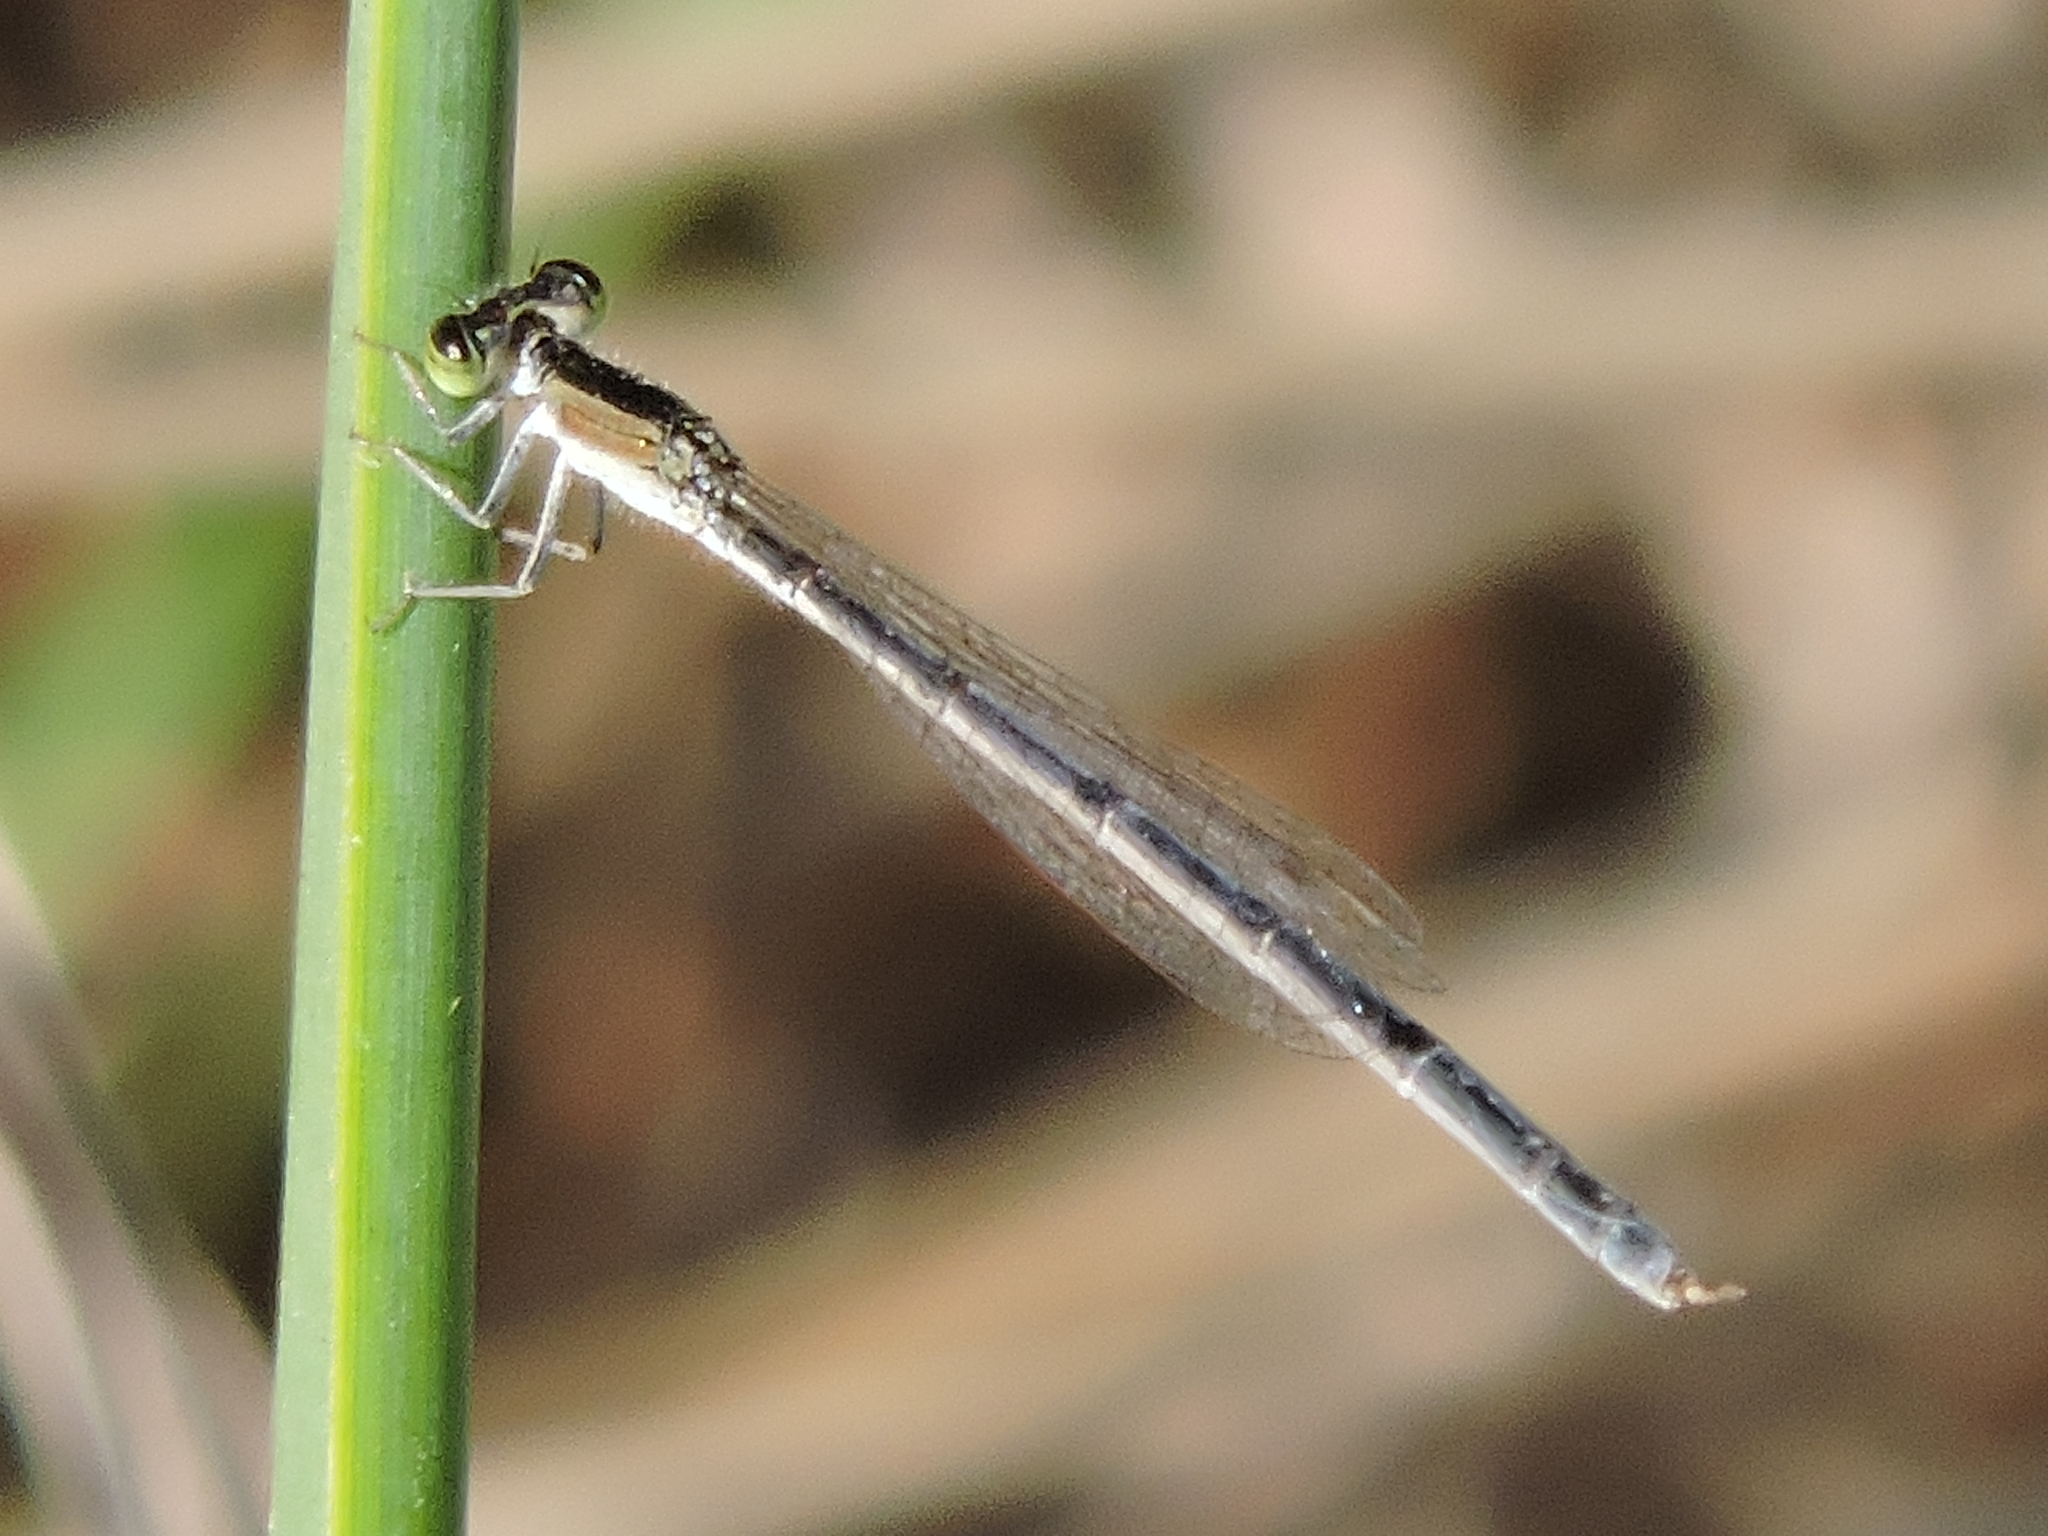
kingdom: Animalia
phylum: Arthropoda
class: Insecta
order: Odonata
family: Coenagrionidae
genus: Ischnura
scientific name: Ischnura hastata
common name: Citrine forktail
